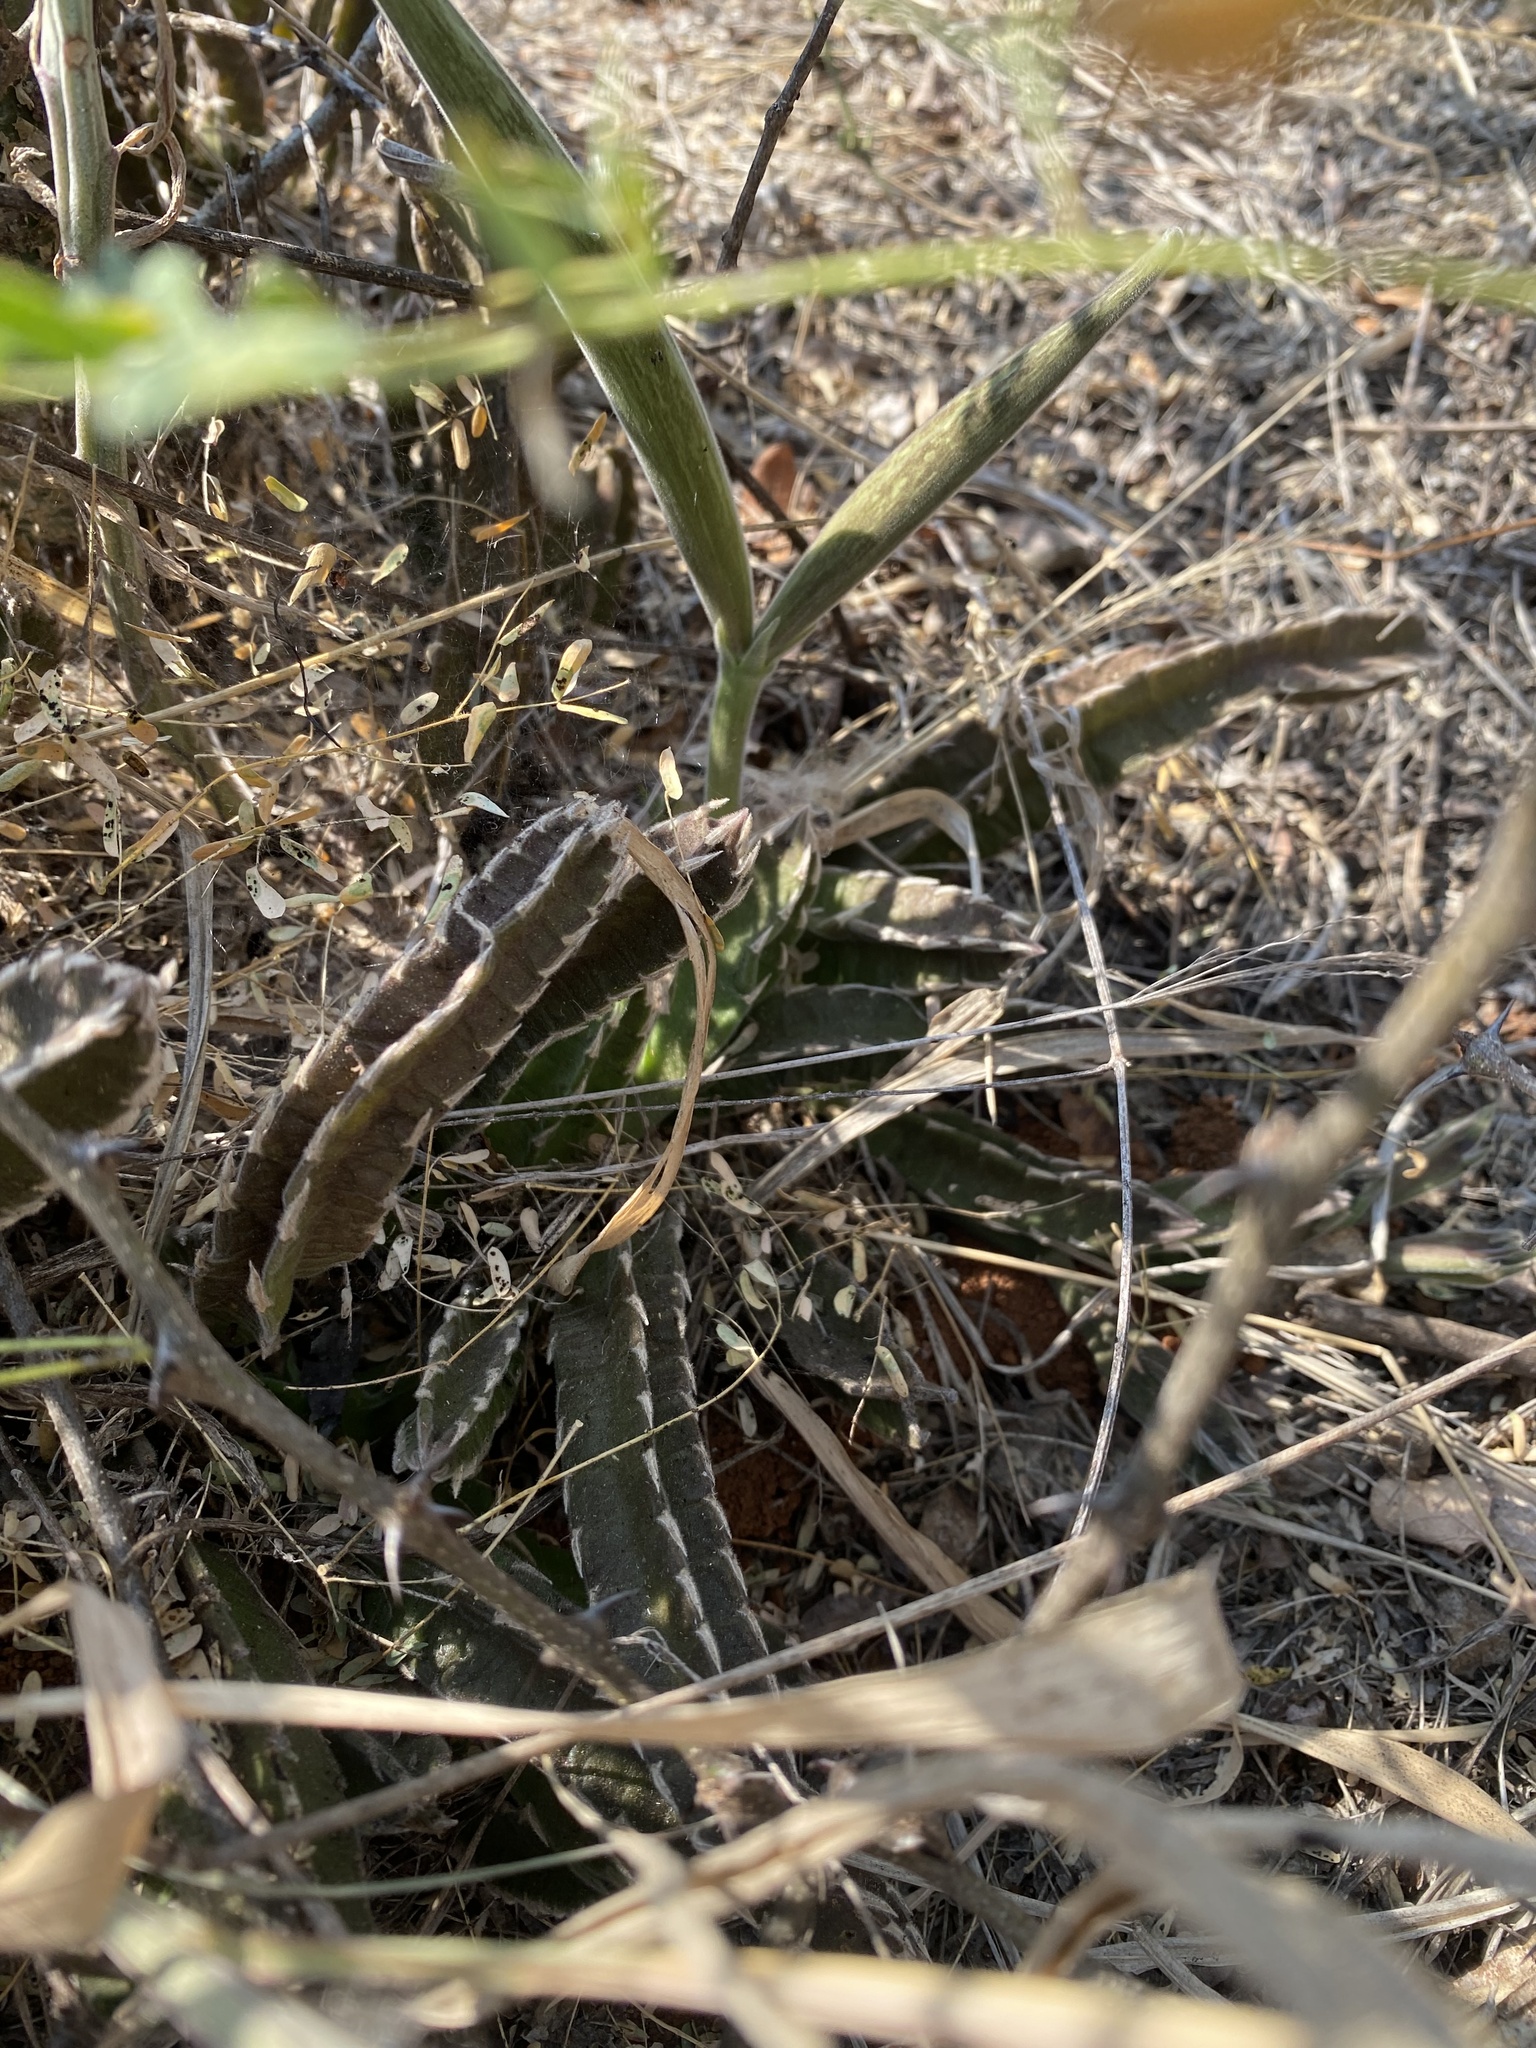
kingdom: Plantae
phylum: Tracheophyta
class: Magnoliopsida
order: Gentianales
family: Apocynaceae
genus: Stapelia
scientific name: Stapelia gettliffei
